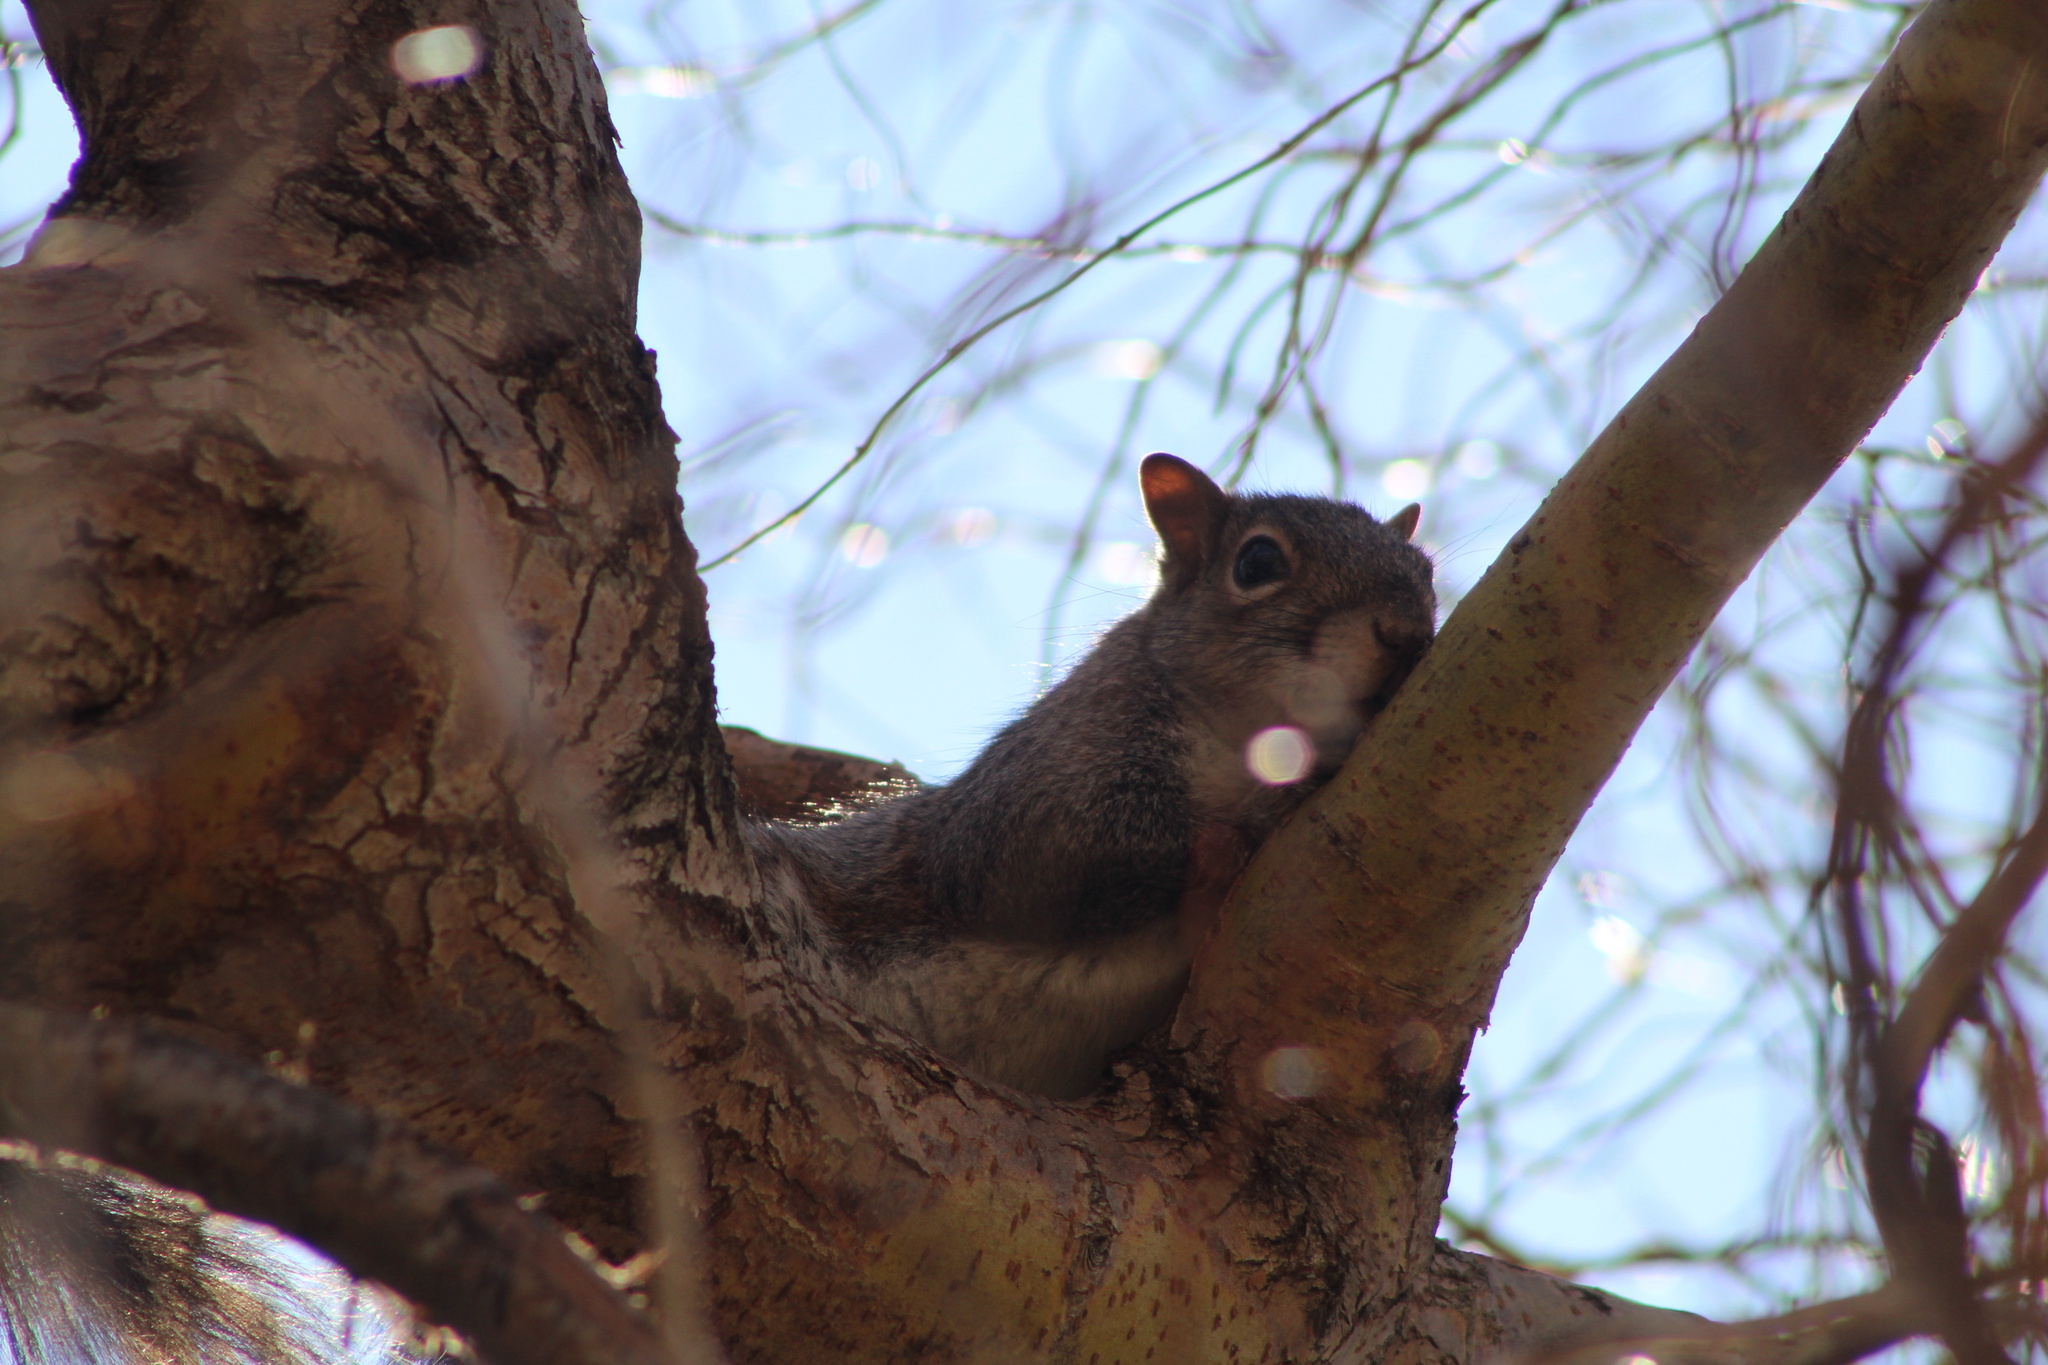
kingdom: Animalia
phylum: Chordata
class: Mammalia
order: Rodentia
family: Sciuridae
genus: Sciurus
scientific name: Sciurus carolinensis
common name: Eastern gray squirrel
